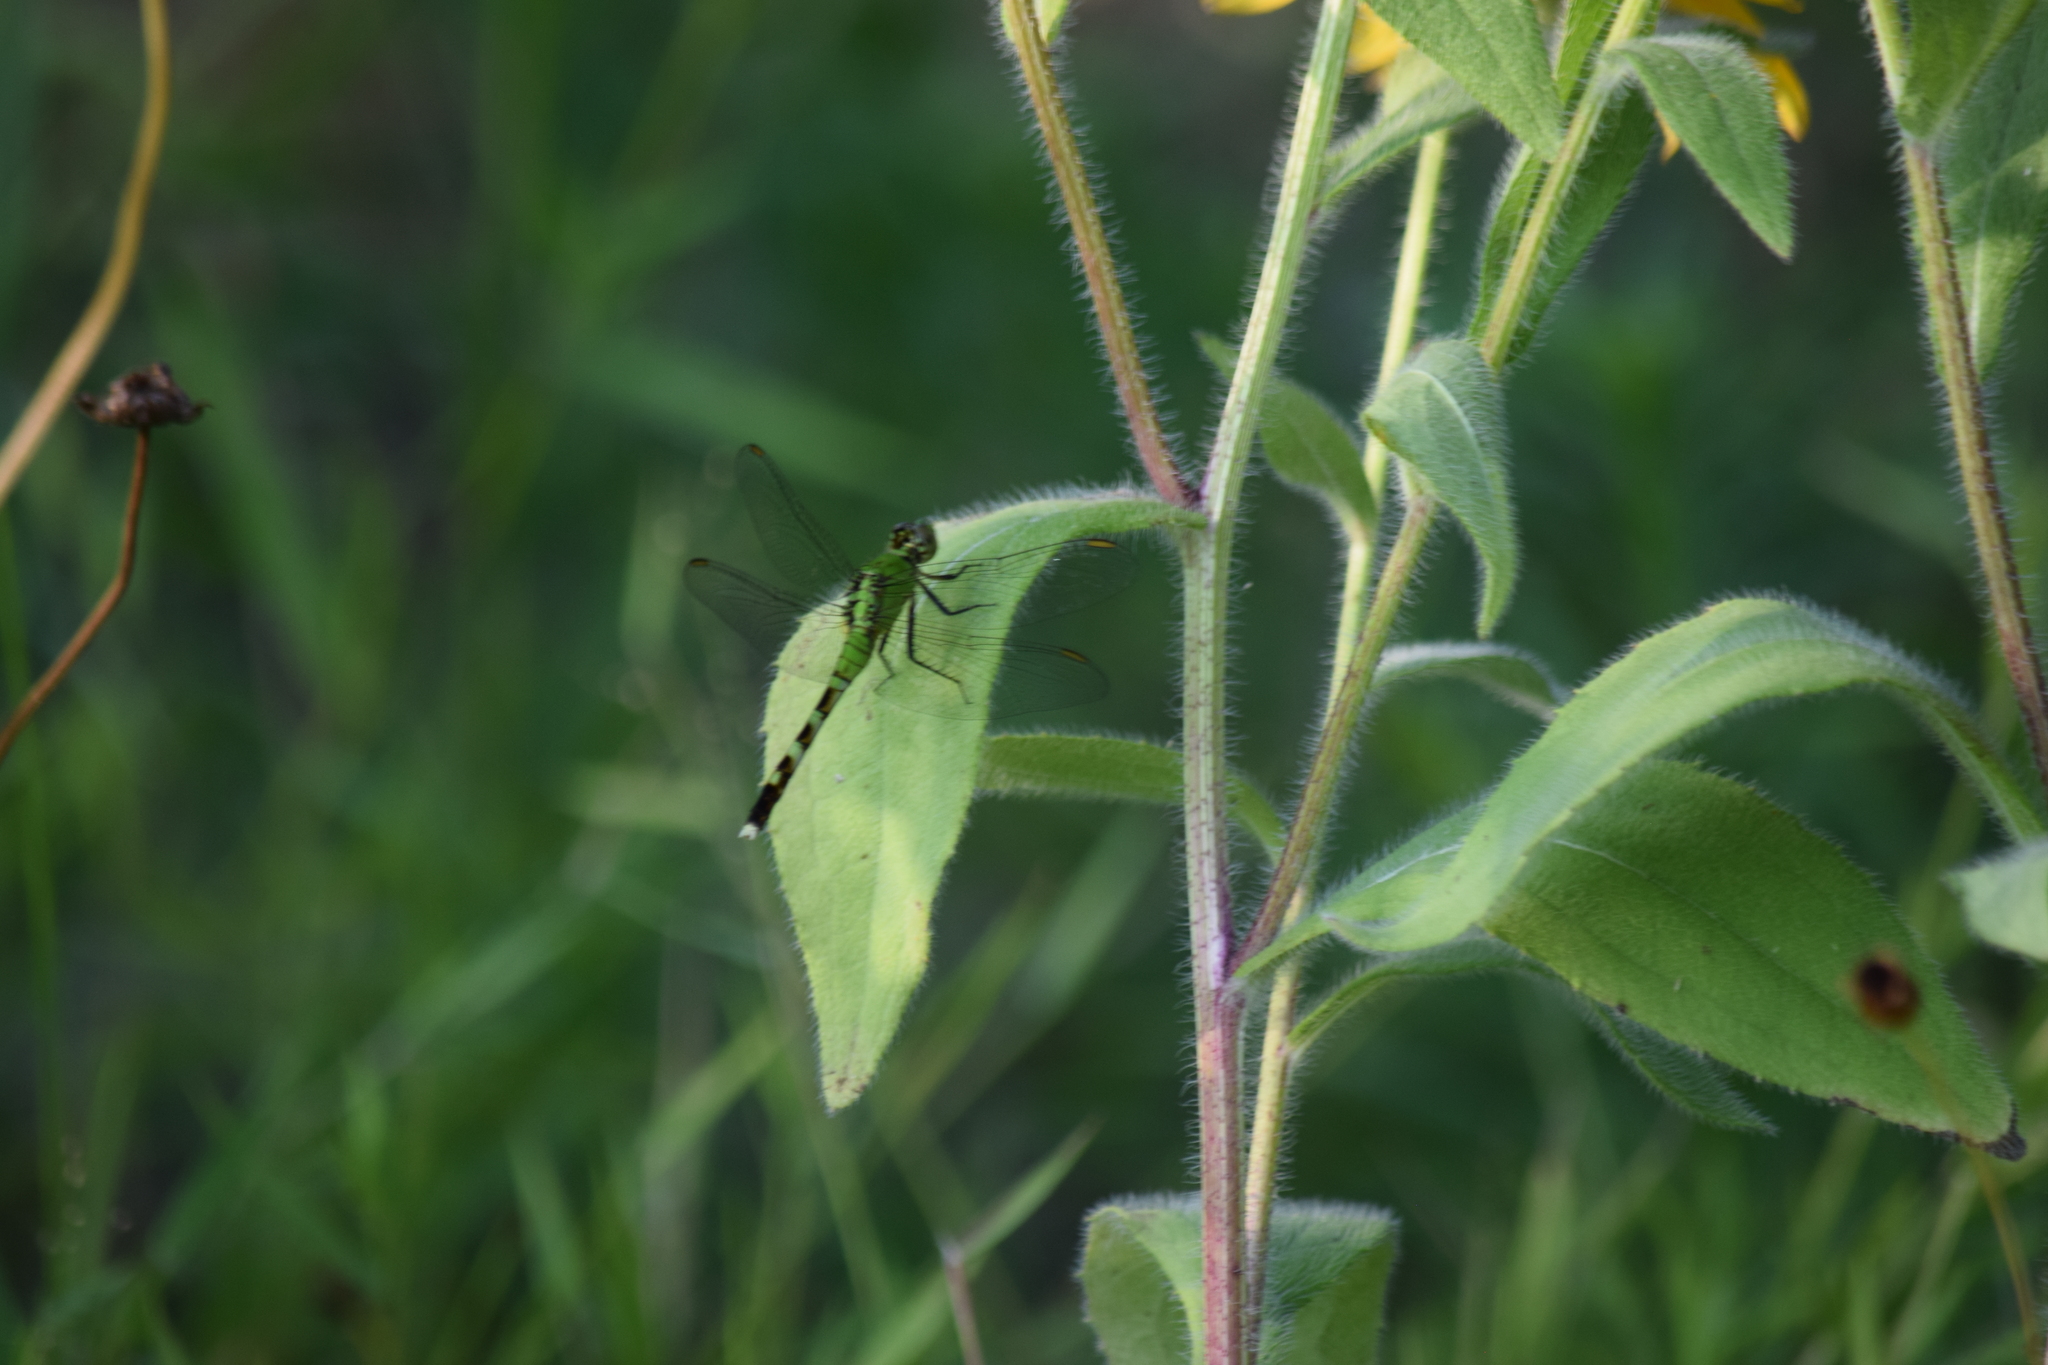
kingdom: Animalia
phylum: Arthropoda
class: Insecta
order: Odonata
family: Libellulidae
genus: Erythemis
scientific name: Erythemis simplicicollis
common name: Eastern pondhawk
